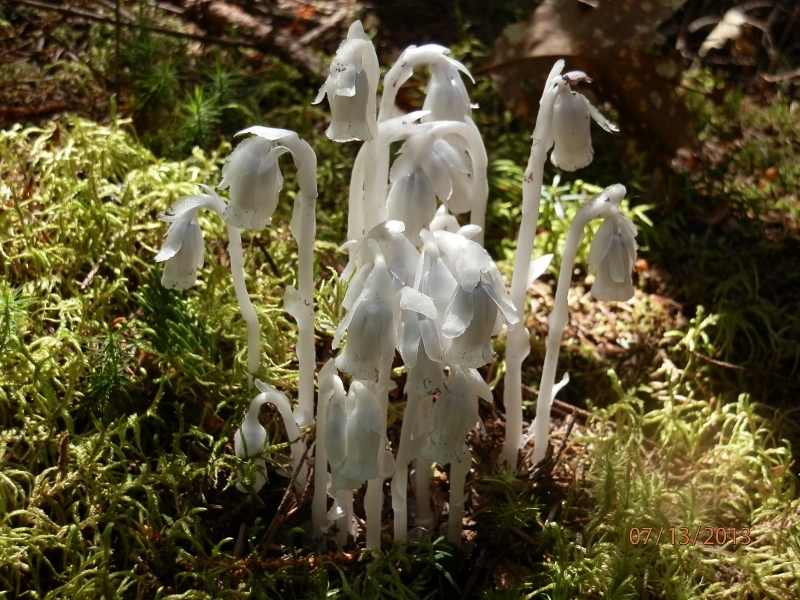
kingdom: Plantae
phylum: Tracheophyta
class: Magnoliopsida
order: Ericales
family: Ericaceae
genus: Monotropa
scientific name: Monotropa uniflora
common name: Convulsion root
